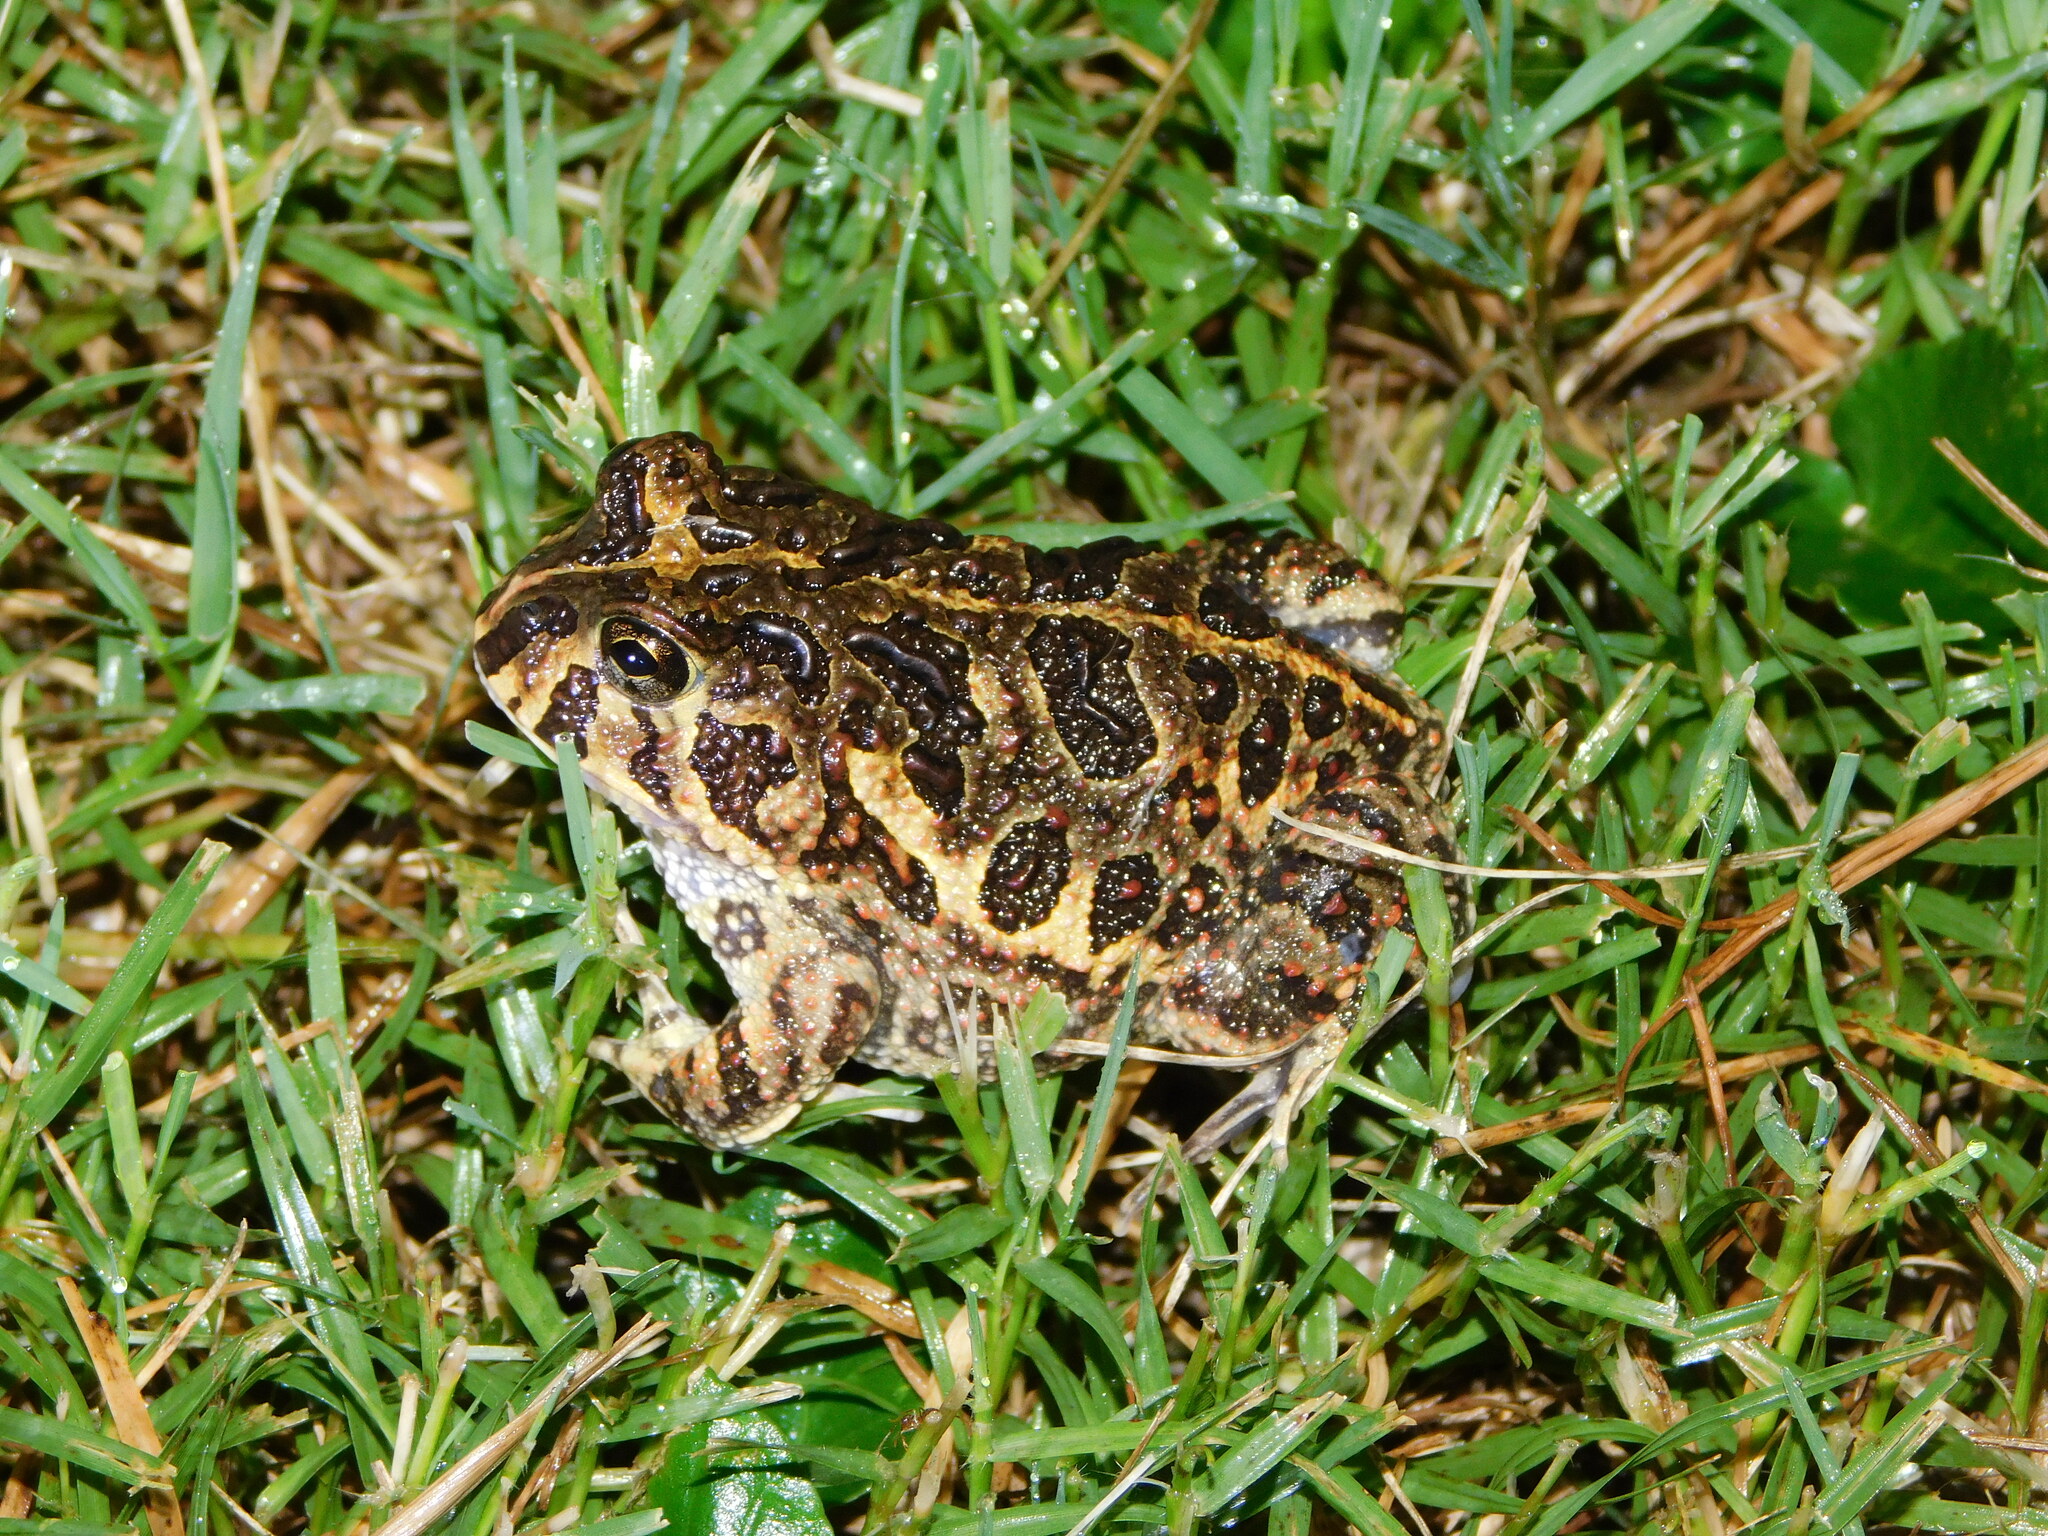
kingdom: Animalia
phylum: Chordata
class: Amphibia
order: Anura
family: Odontophrynidae
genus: Odontophrynus
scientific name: Odontophrynus
